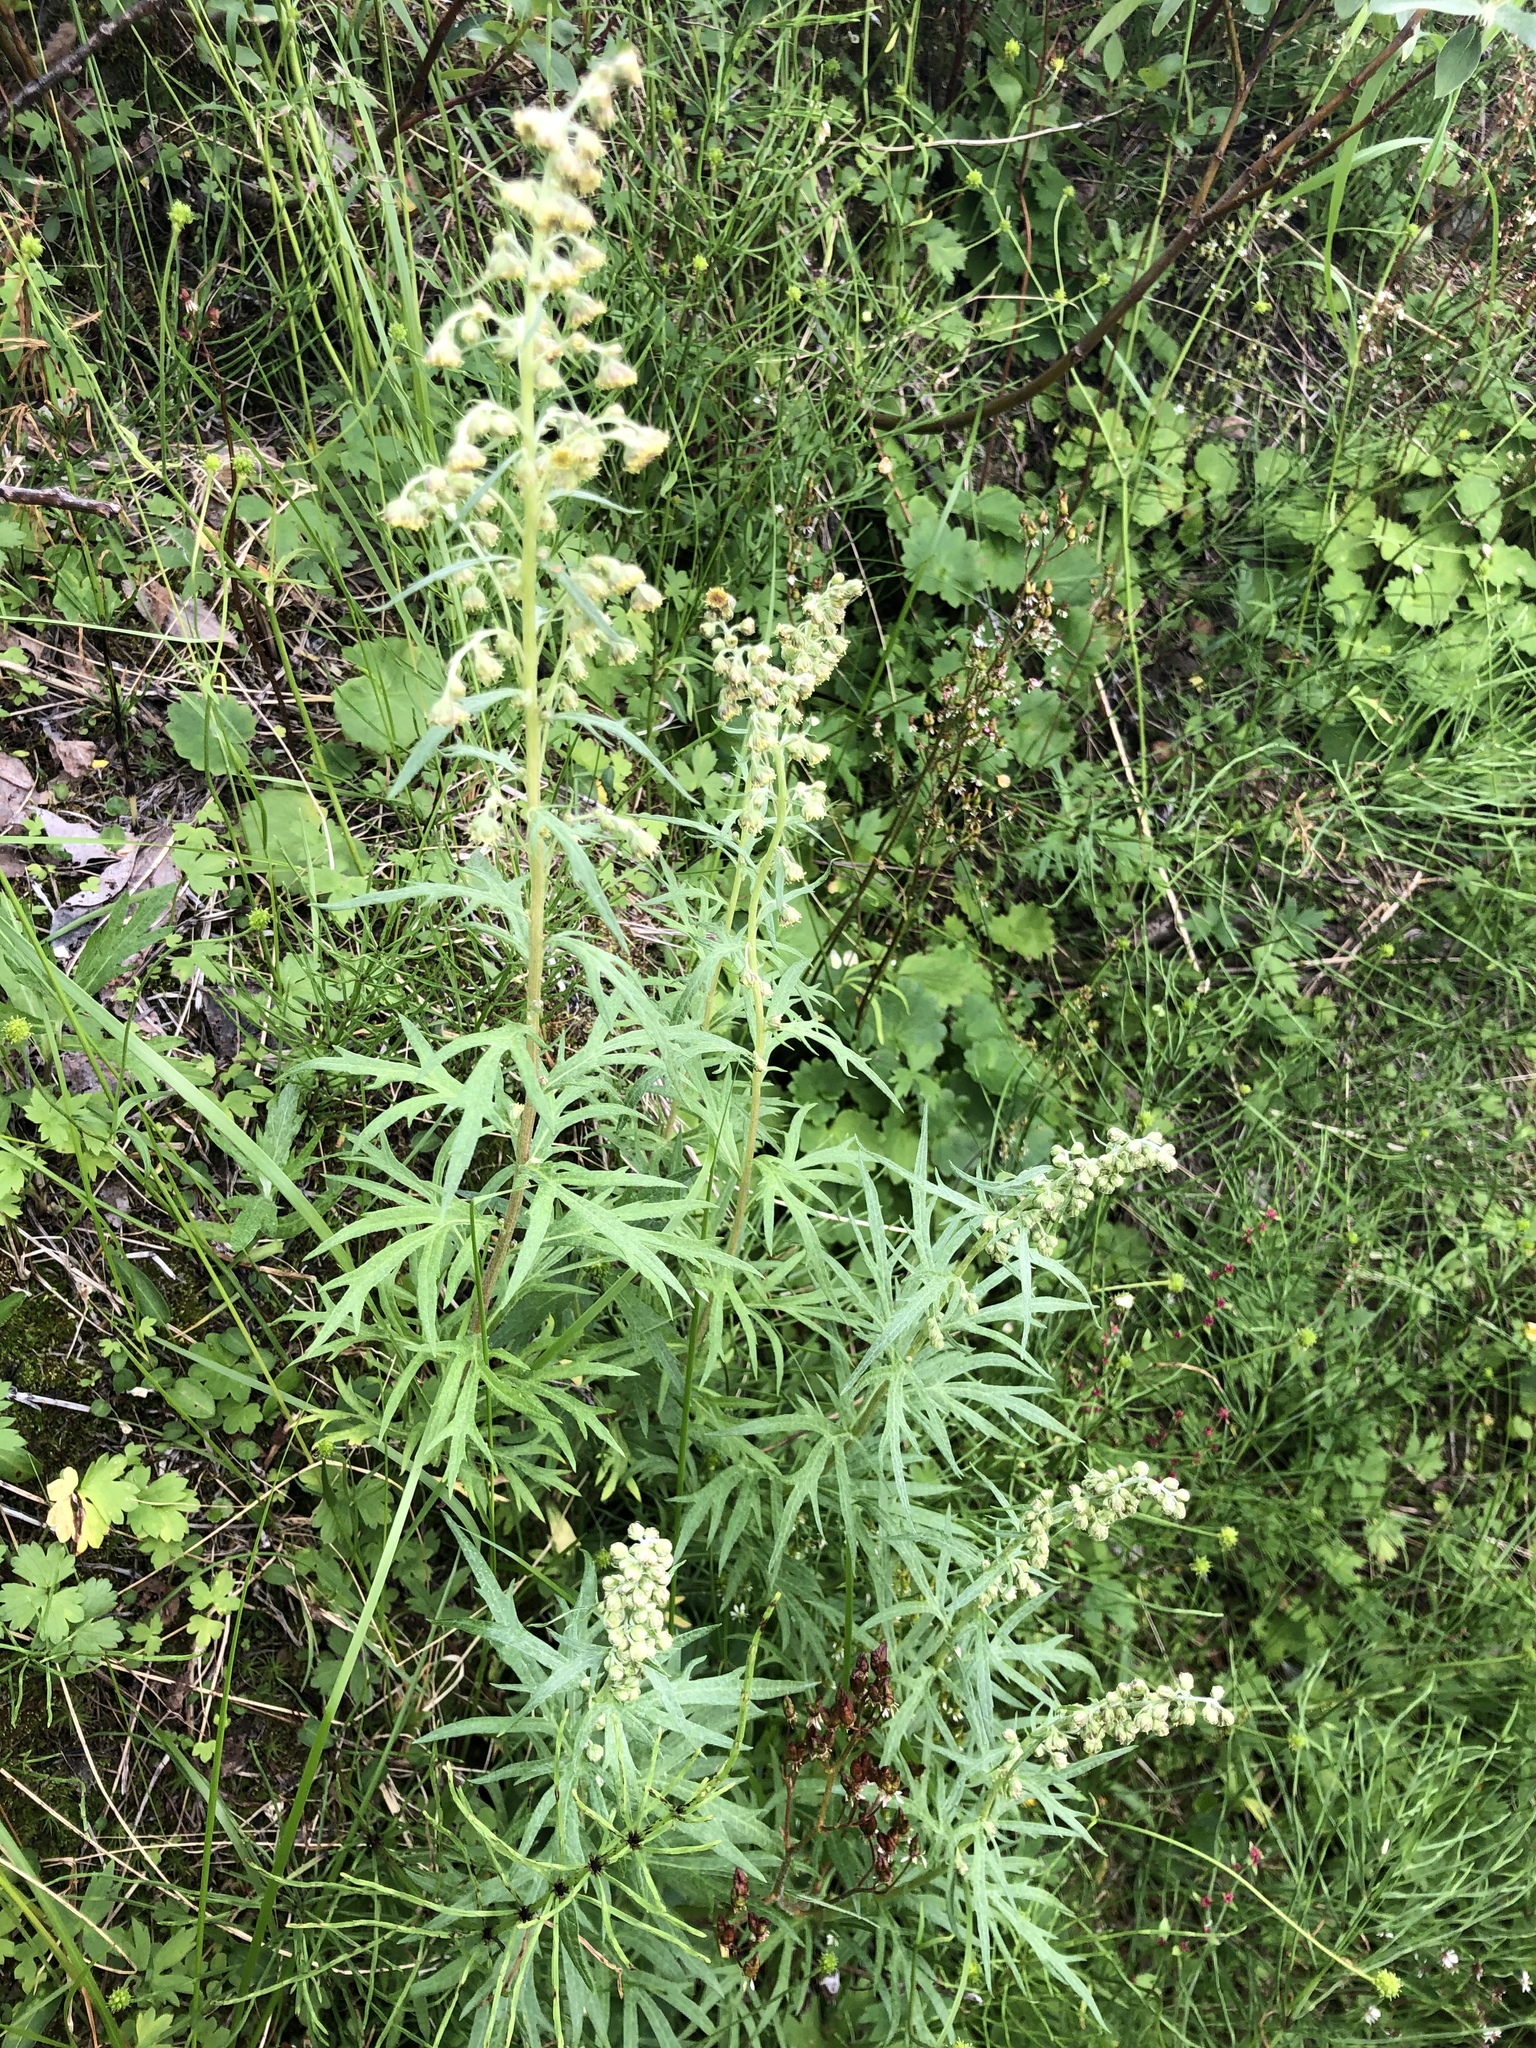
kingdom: Plantae
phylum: Tracheophyta
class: Magnoliopsida
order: Asterales
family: Asteraceae
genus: Artemisia
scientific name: Artemisia tilesii
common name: Aleutian mugwort
